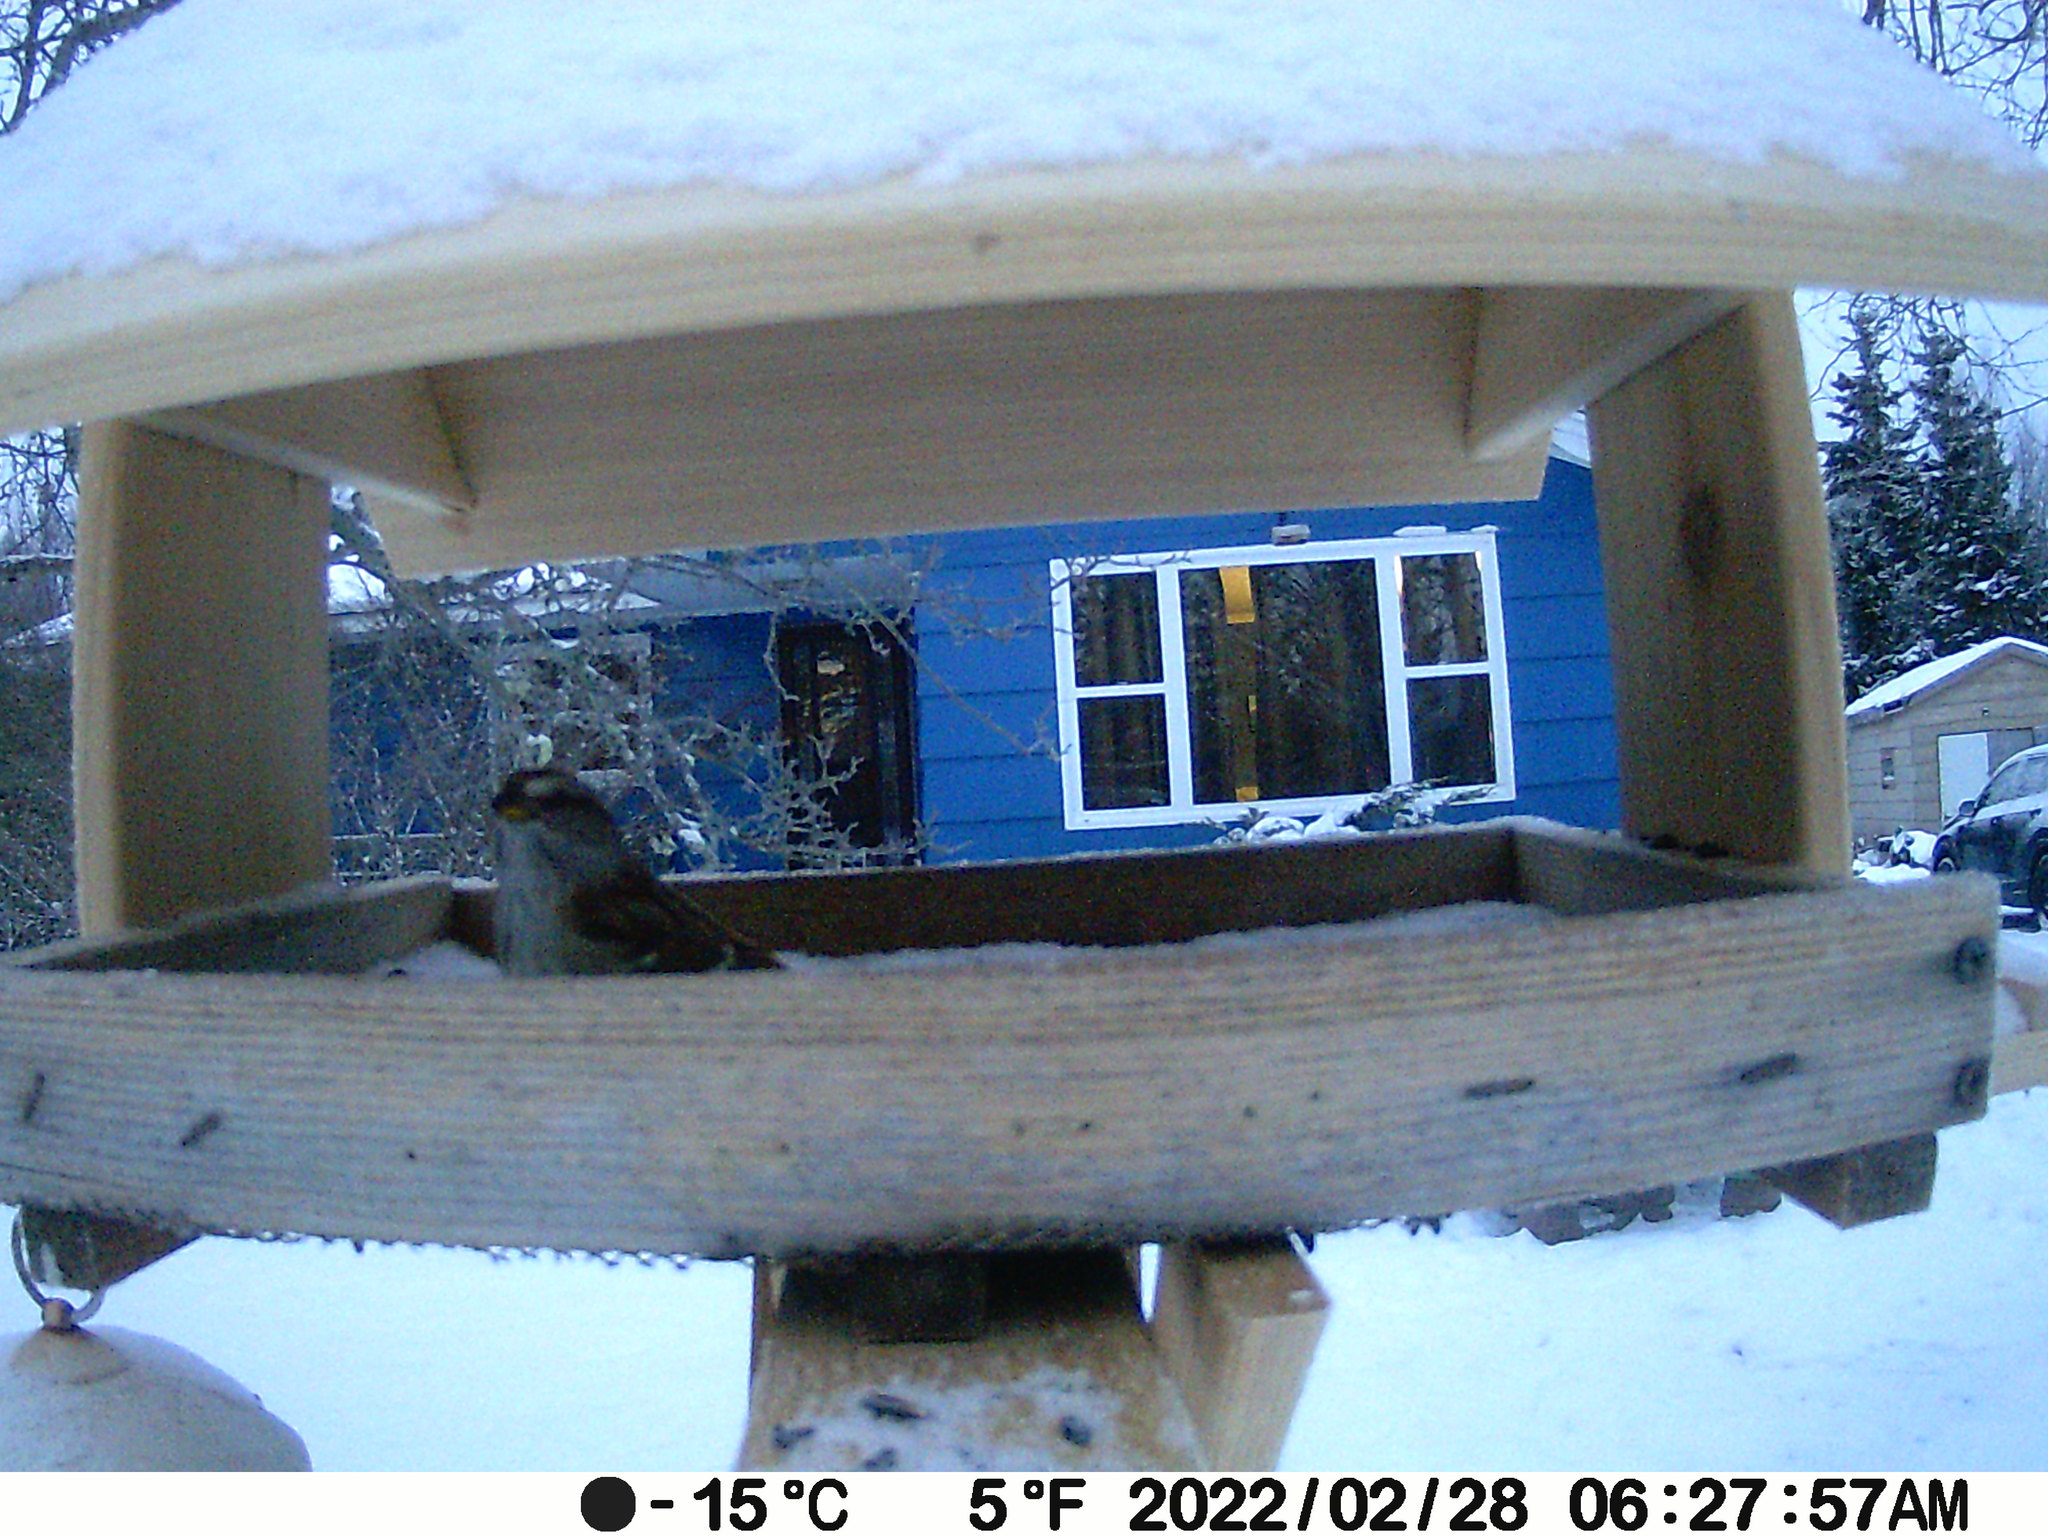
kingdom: Animalia
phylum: Chordata
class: Aves
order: Passeriformes
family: Passerellidae
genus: Spizelloides
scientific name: Spizelloides arborea
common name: American tree sparrow
